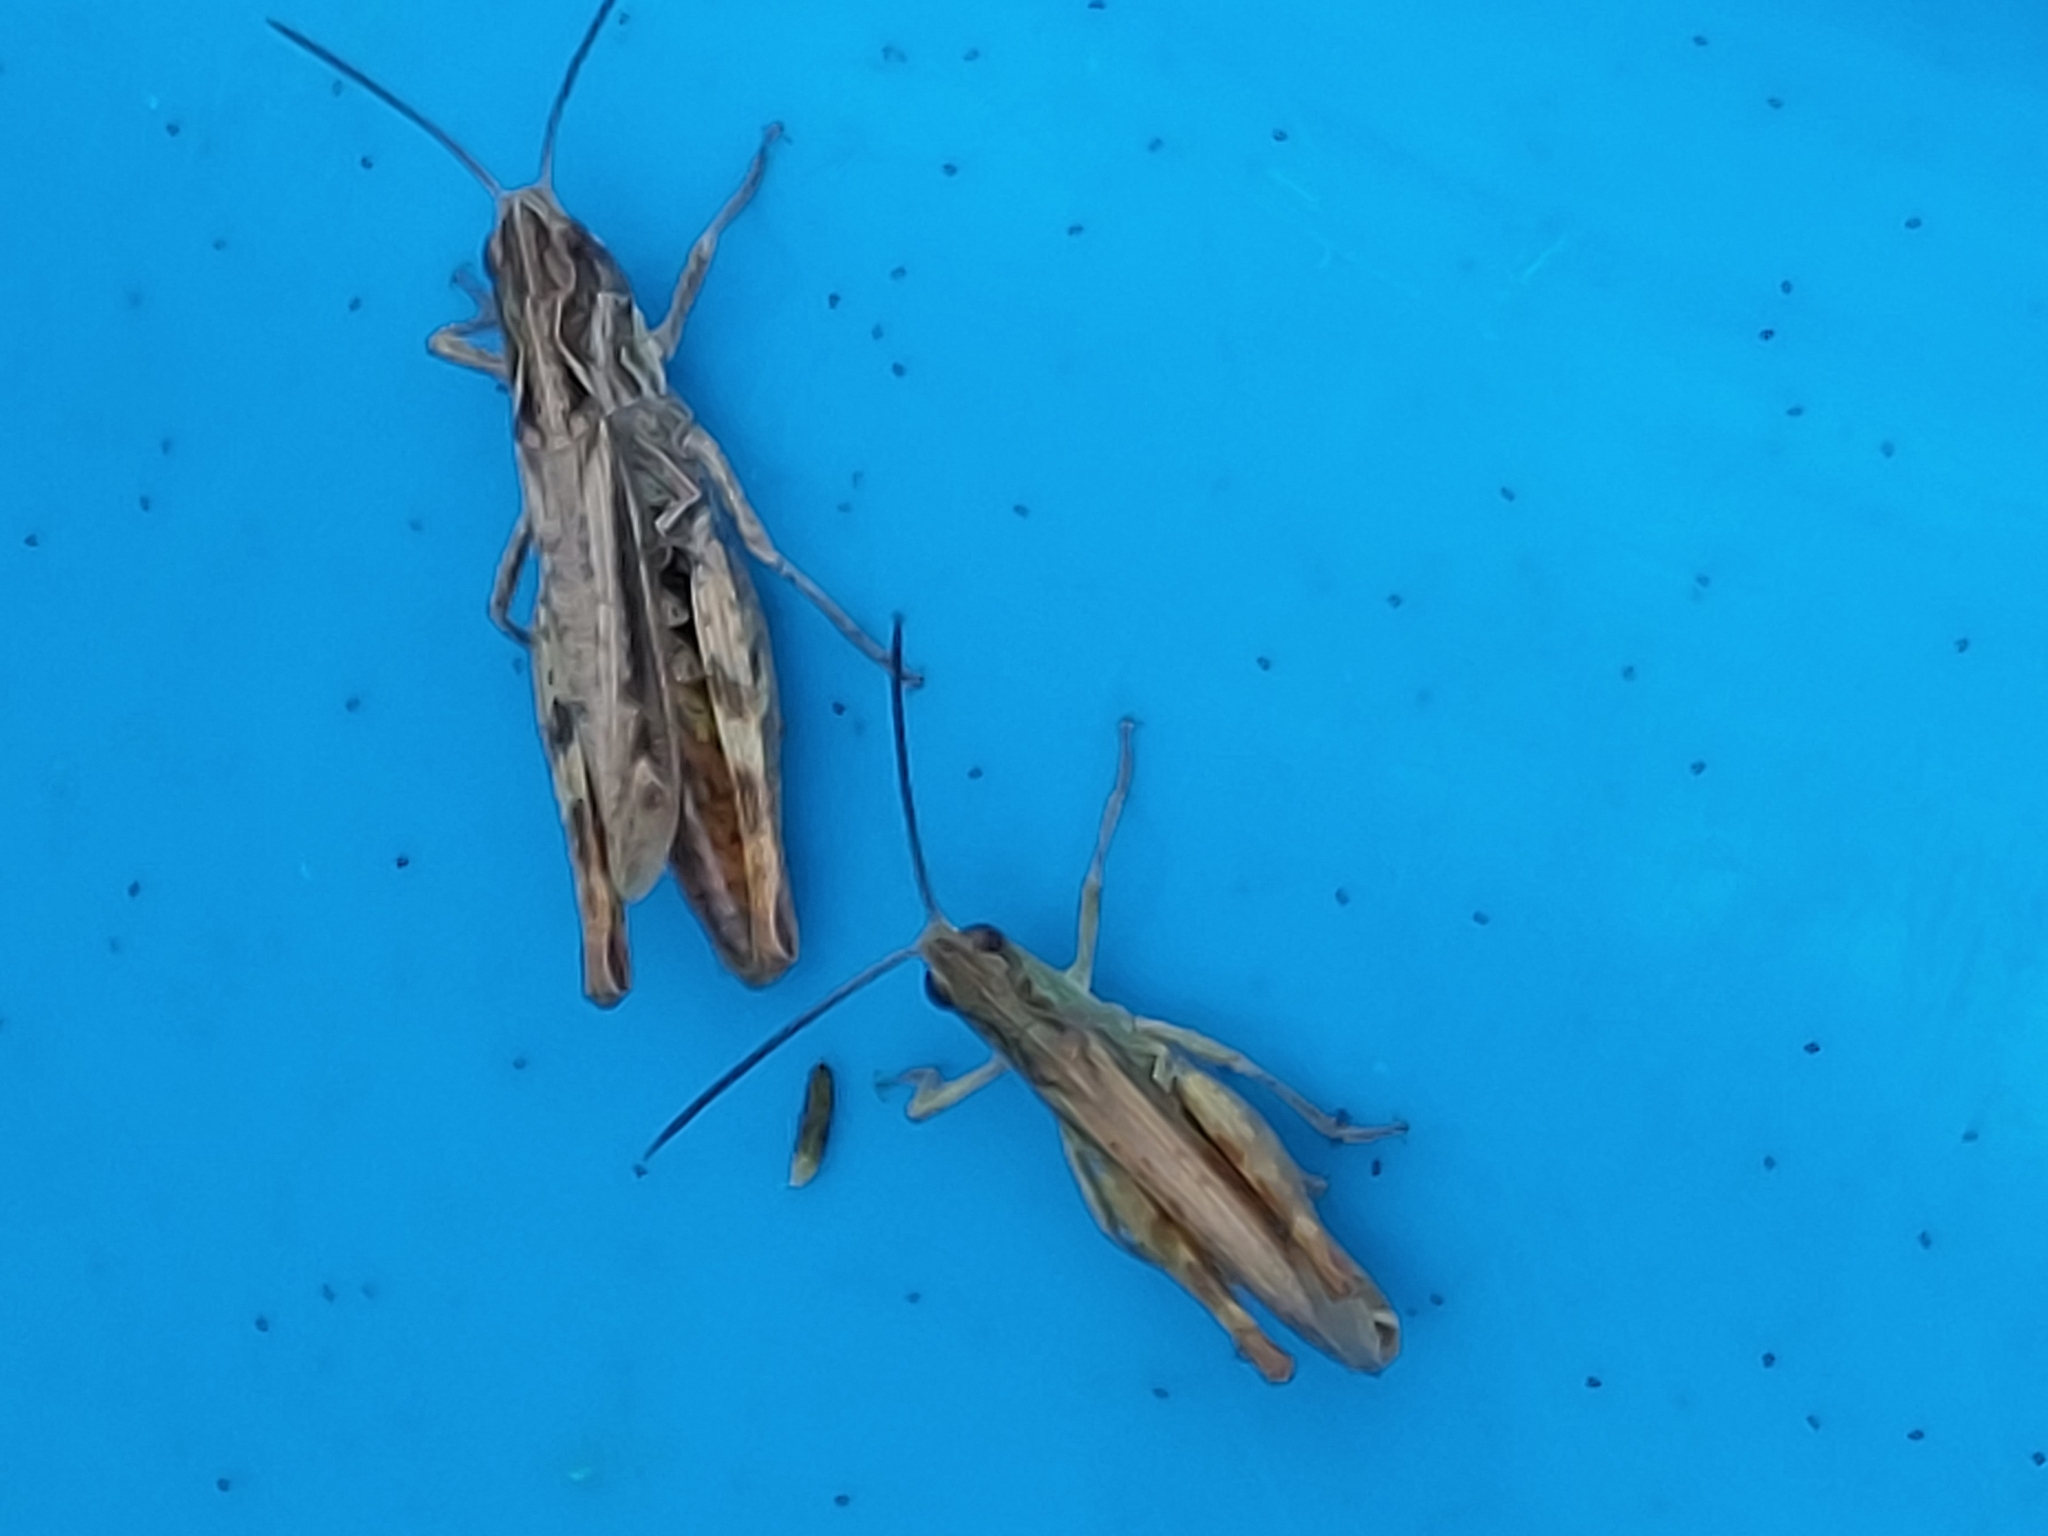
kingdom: Animalia
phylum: Arthropoda
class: Insecta
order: Orthoptera
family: Acrididae
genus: Chorthippus
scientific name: Chorthippus apricarius
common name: Upland field grasshopper
